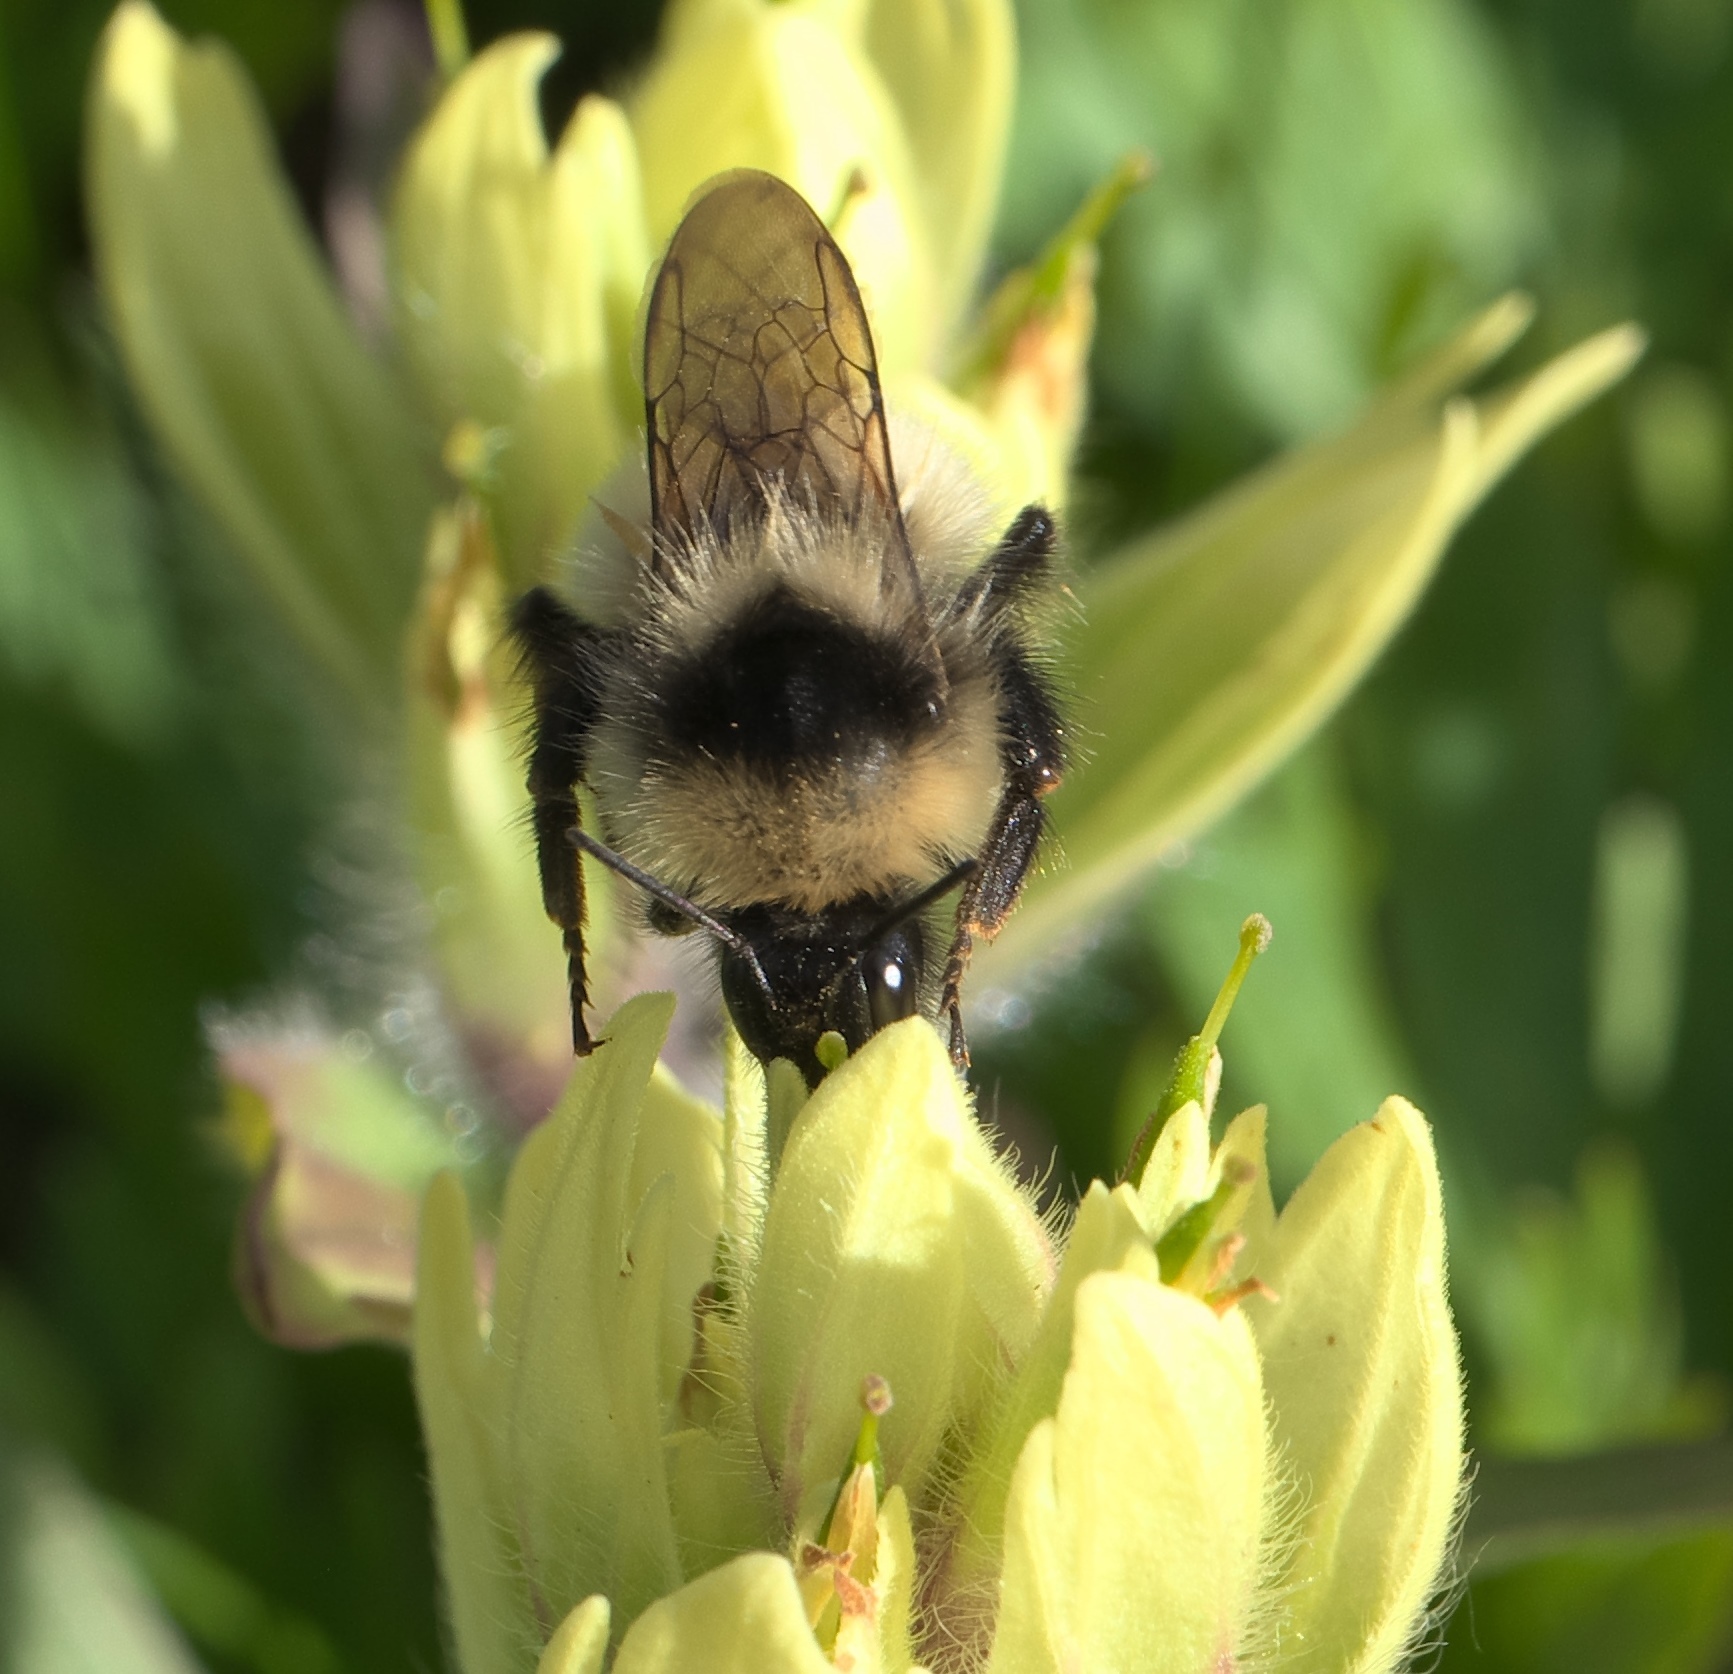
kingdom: Animalia
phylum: Arthropoda
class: Insecta
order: Hymenoptera
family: Apidae
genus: Bombus
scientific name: Bombus frigidus
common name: Frigid bumble bee
